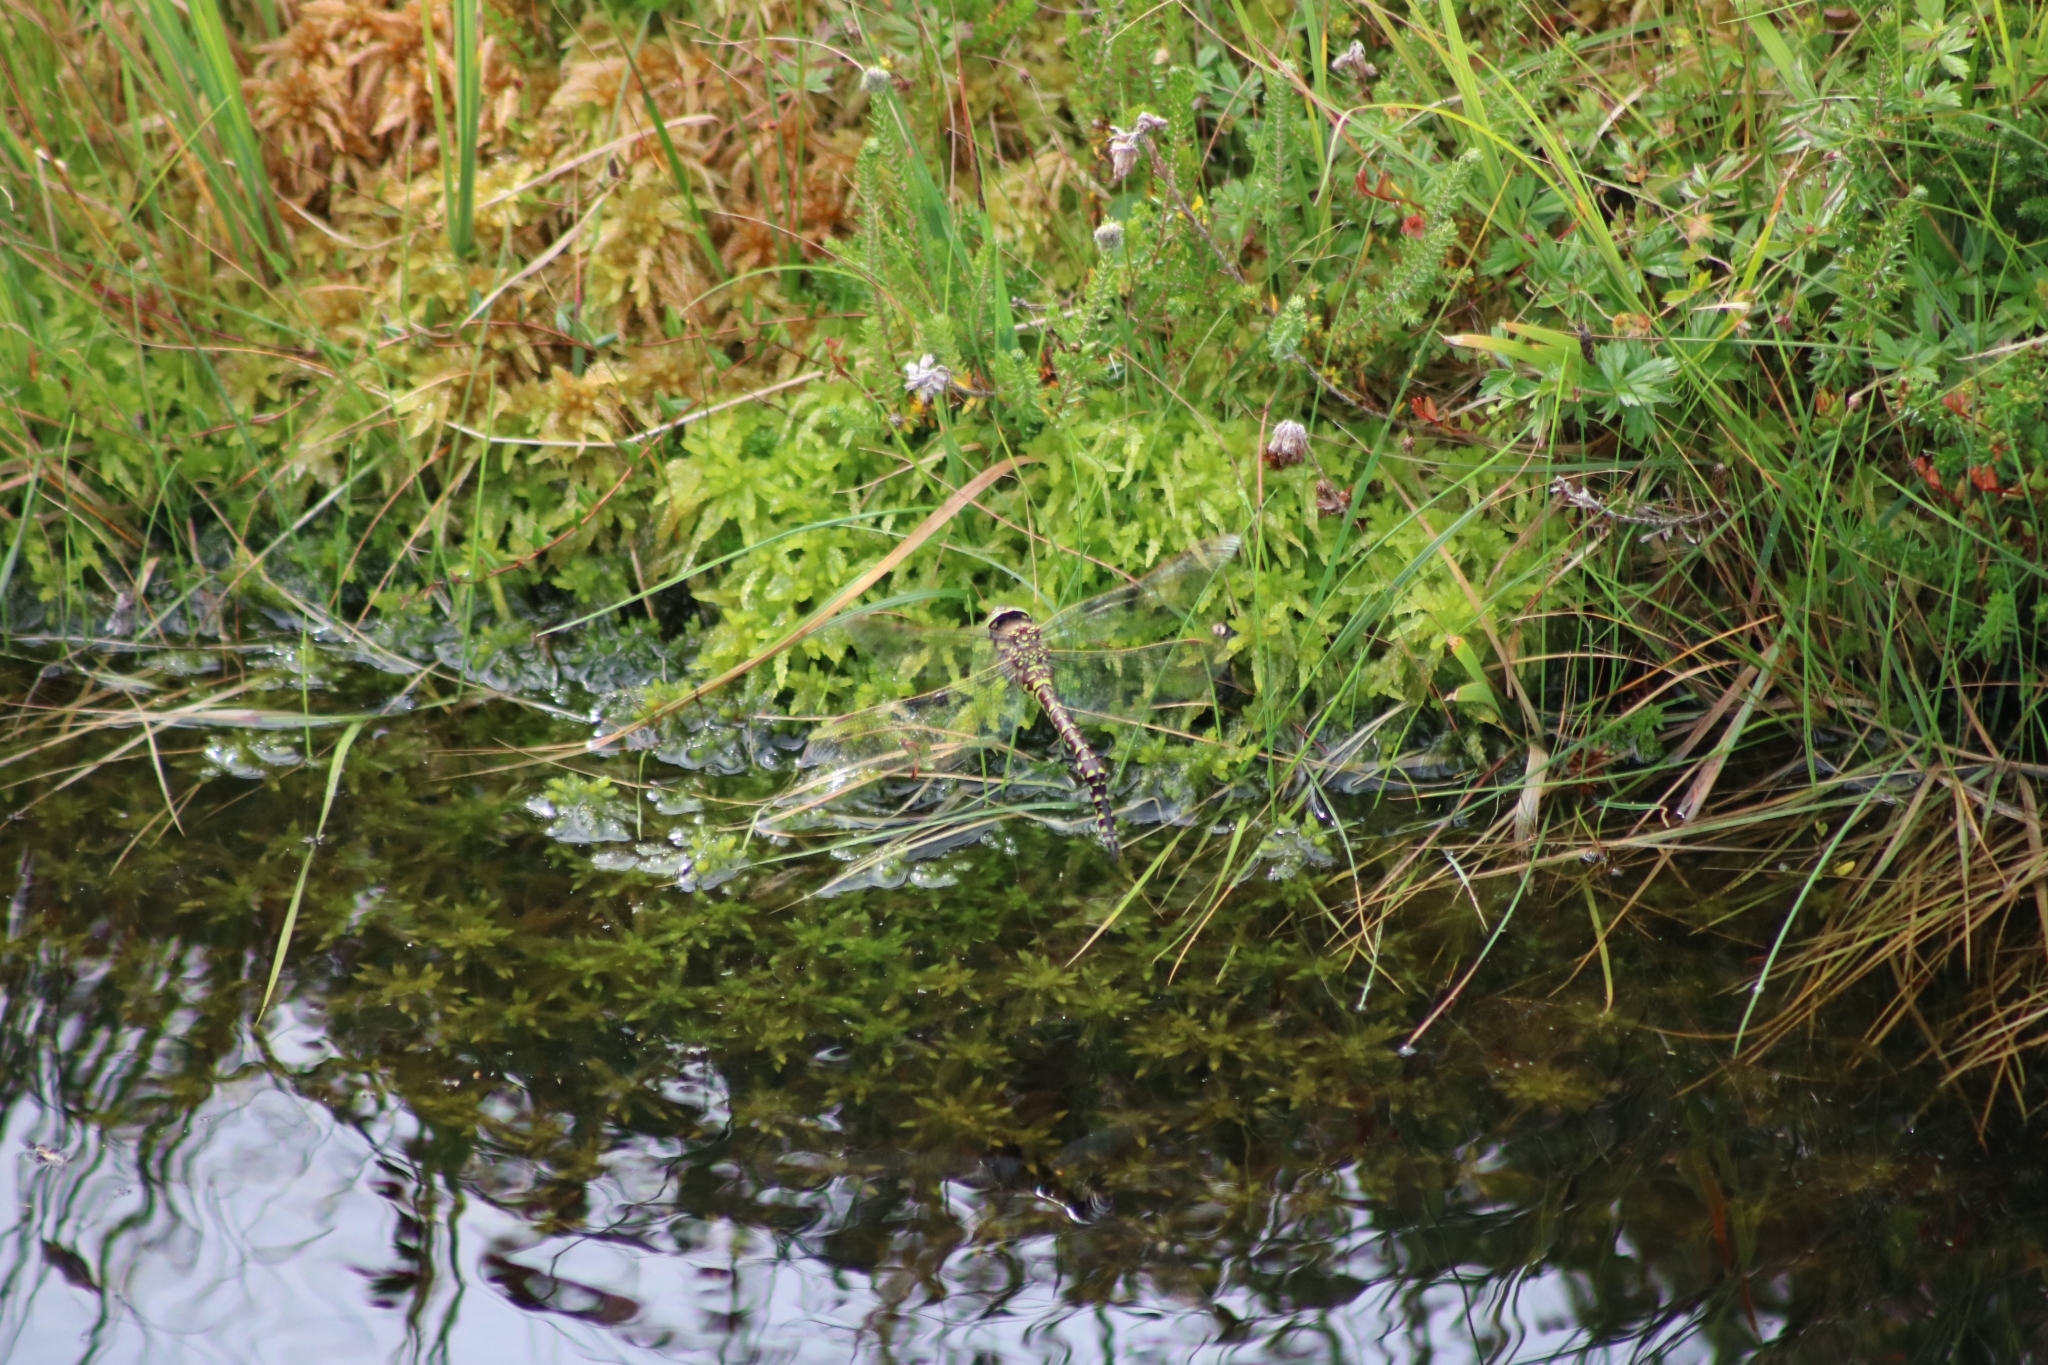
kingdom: Animalia
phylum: Arthropoda
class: Insecta
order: Odonata
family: Aeshnidae
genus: Aeshna
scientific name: Aeshna juncea
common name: Moorland hawker
